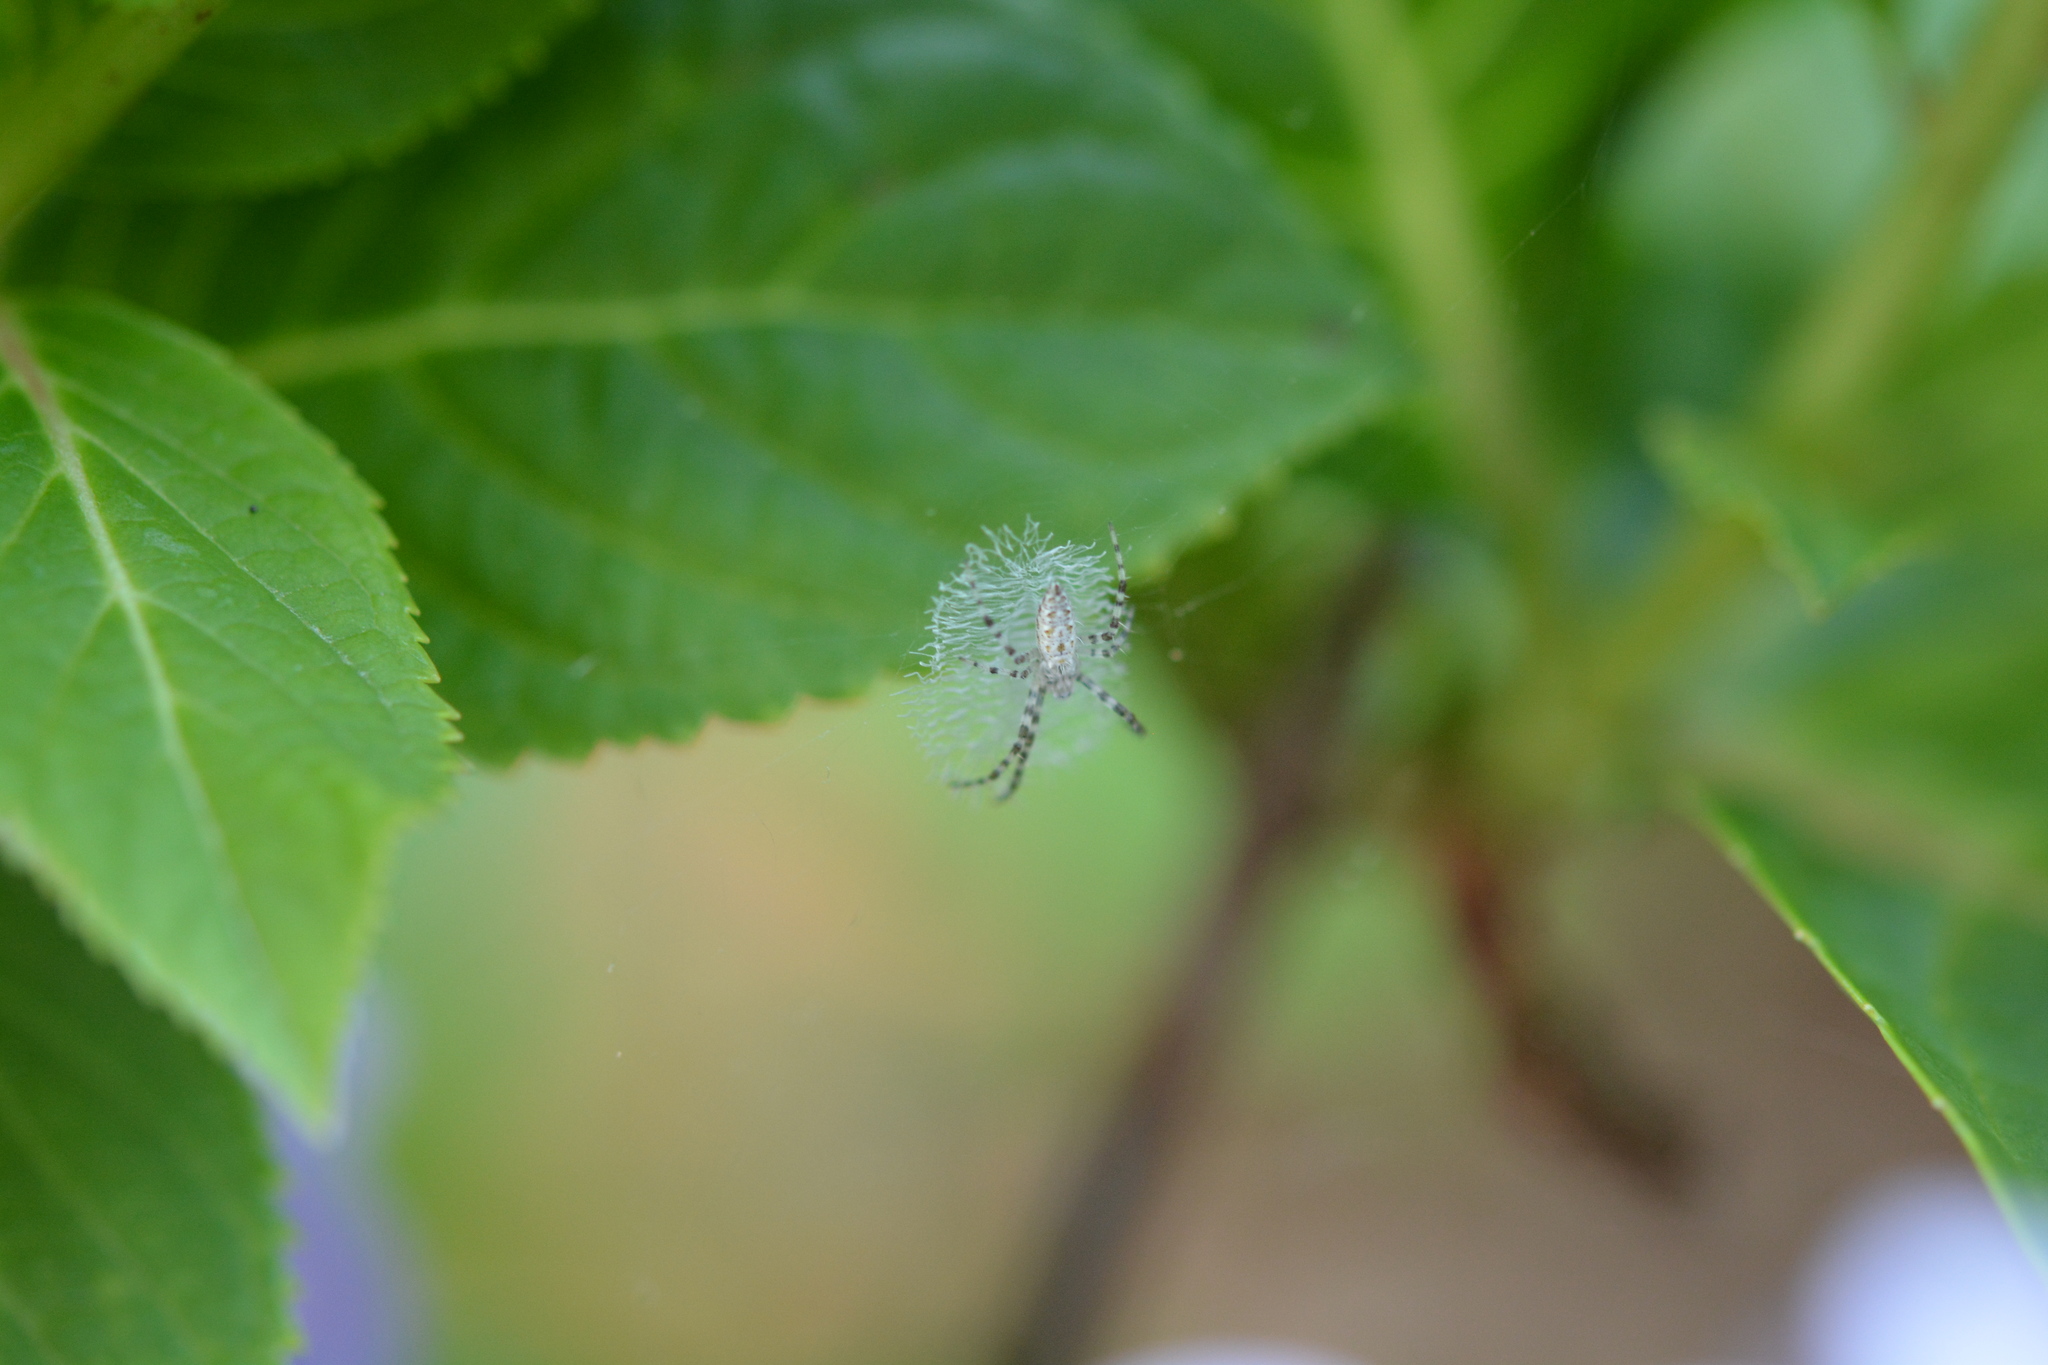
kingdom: Animalia
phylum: Arthropoda
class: Arachnida
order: Araneae
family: Araneidae
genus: Argiope
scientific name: Argiope aurantia
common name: Orb weavers
